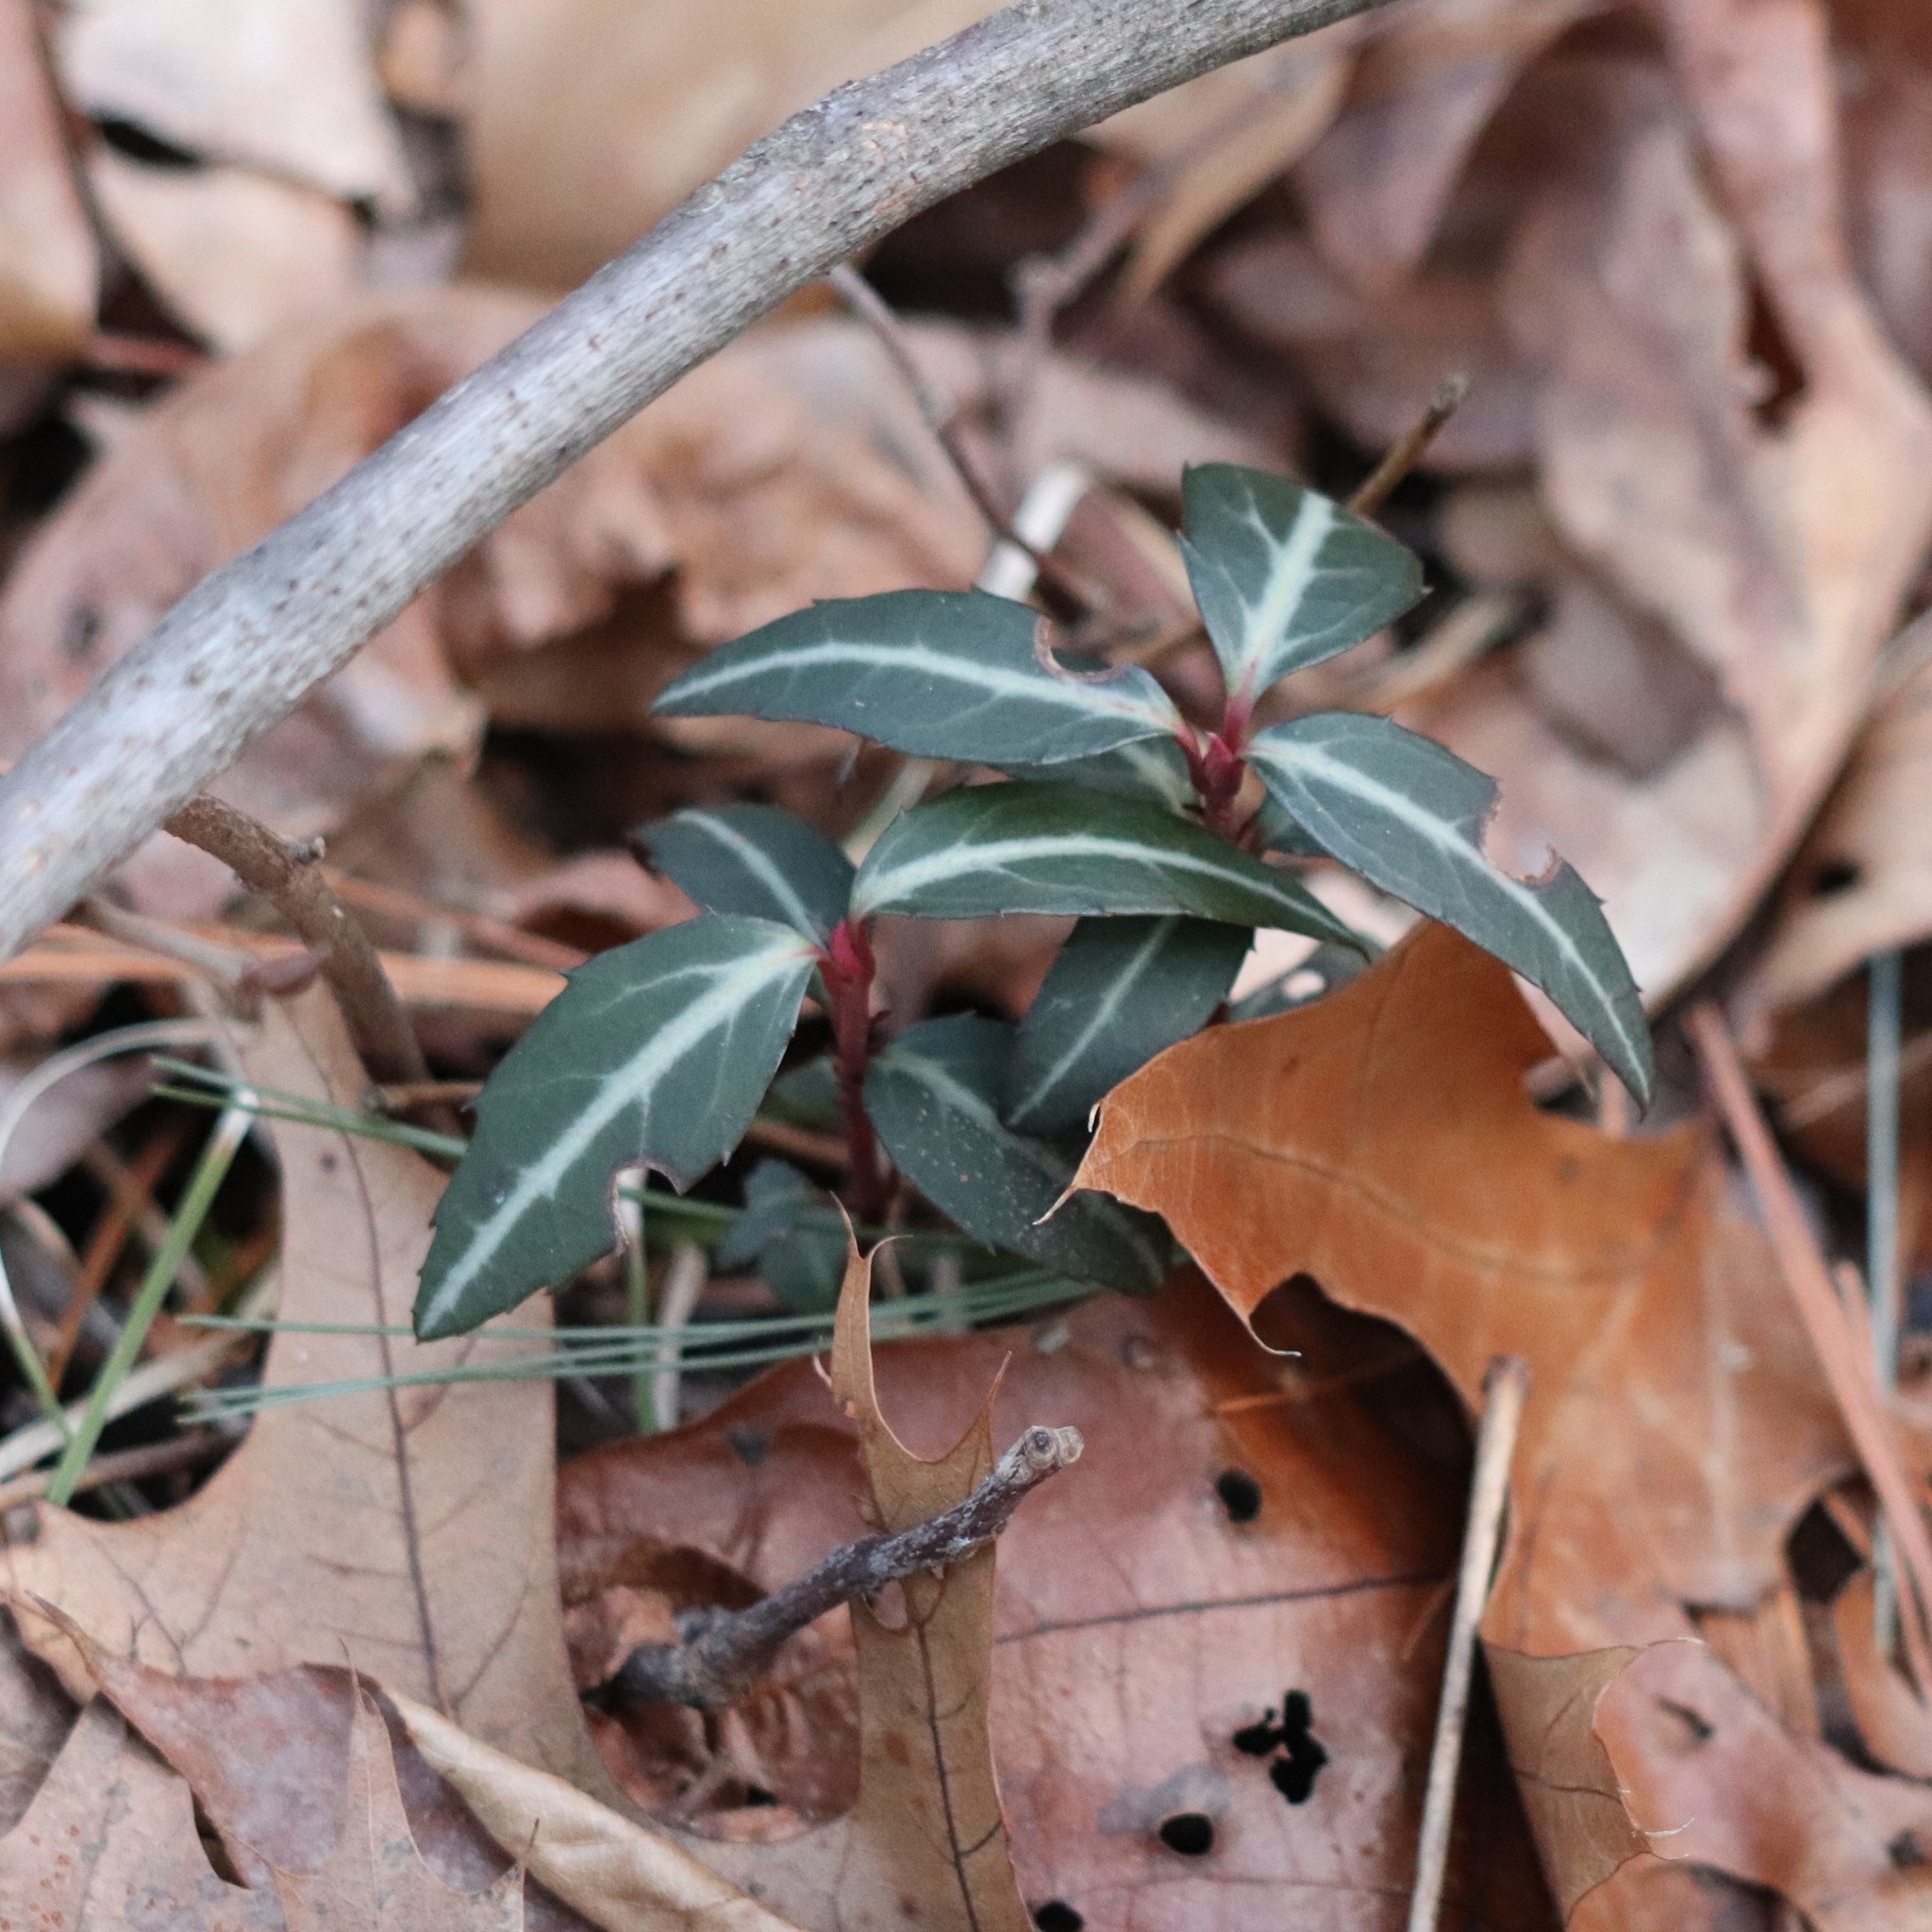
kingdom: Plantae
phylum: Tracheophyta
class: Magnoliopsida
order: Ericales
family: Ericaceae
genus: Chimaphila
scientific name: Chimaphila maculata
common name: Spotted pipsissewa
